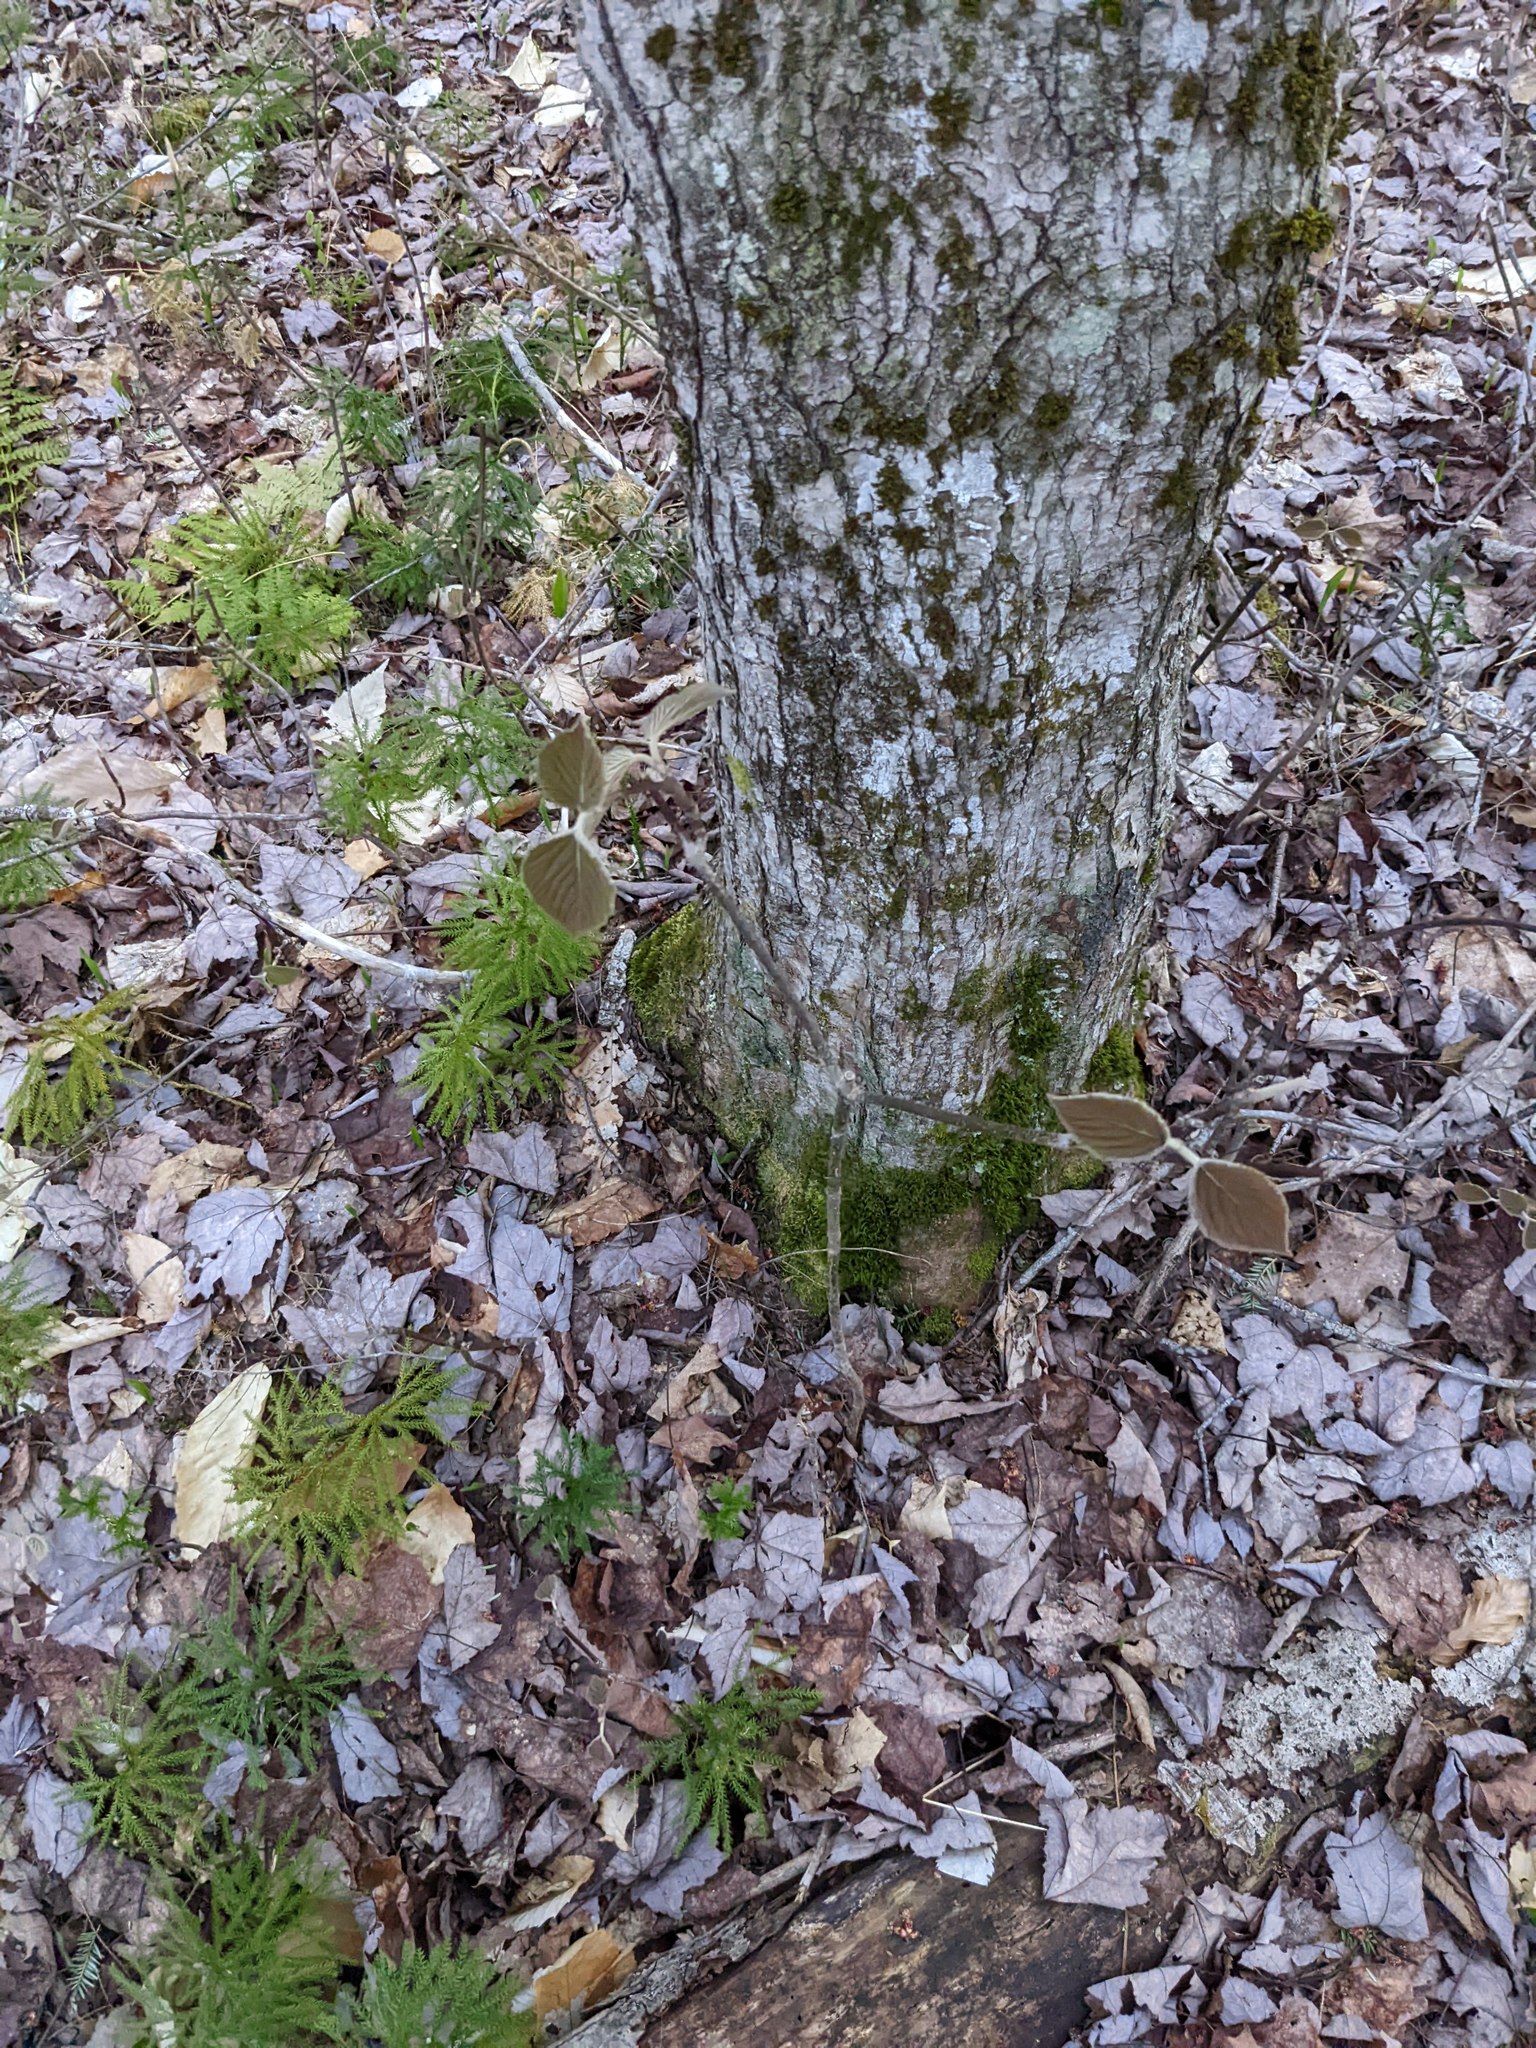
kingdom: Plantae
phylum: Tracheophyta
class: Magnoliopsida
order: Dipsacales
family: Viburnaceae
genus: Viburnum
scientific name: Viburnum lantanoides
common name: Hobblebush
